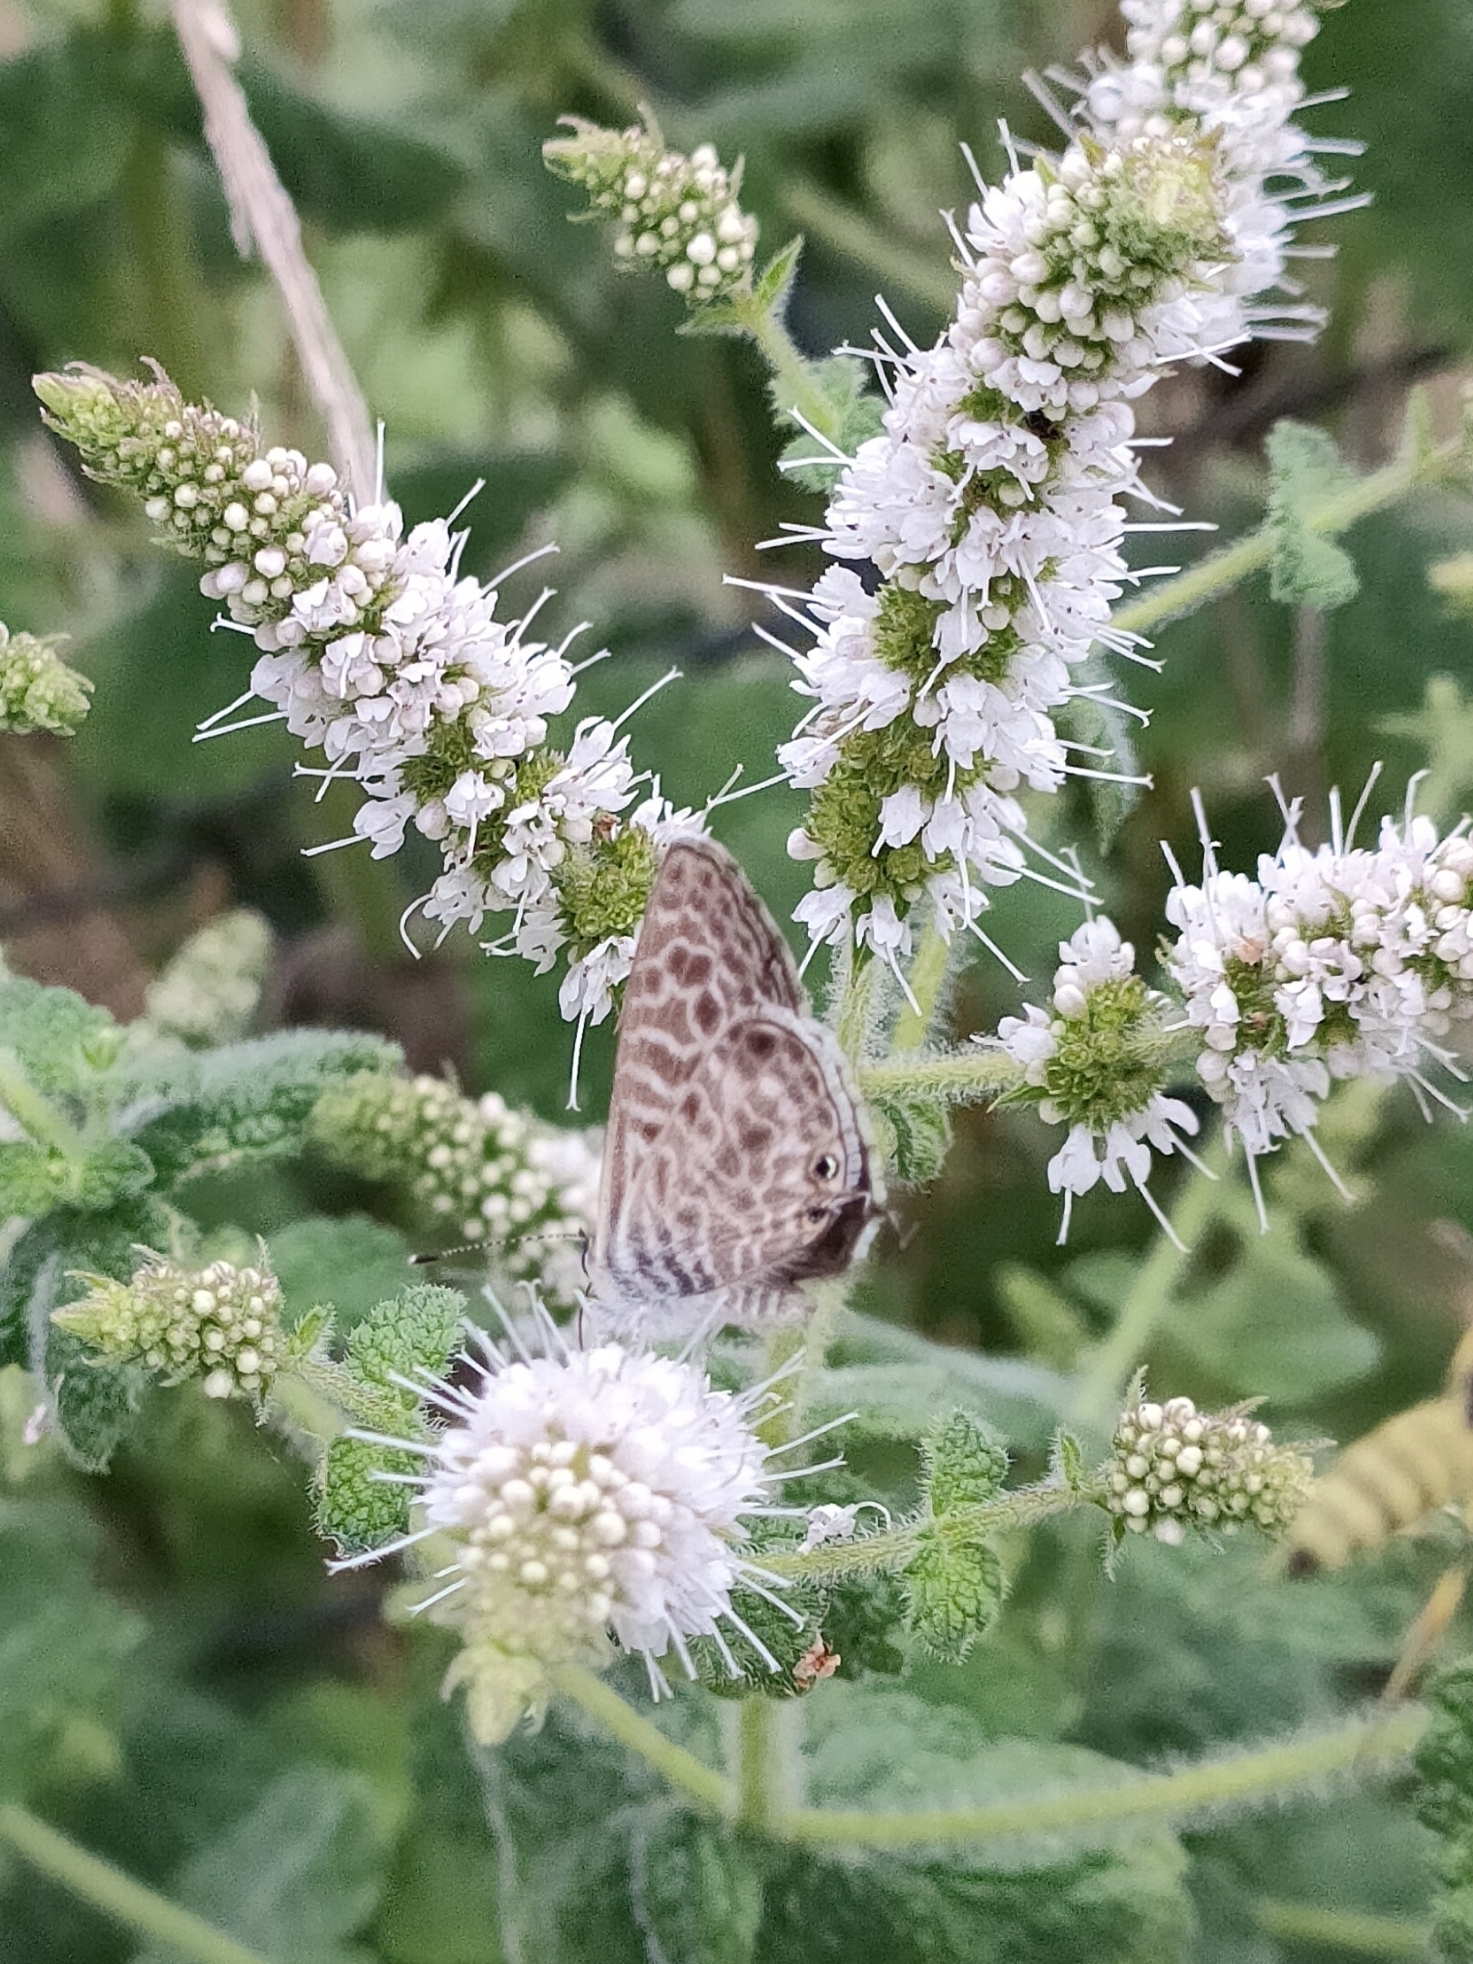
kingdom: Animalia
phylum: Arthropoda
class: Insecta
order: Lepidoptera
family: Lycaenidae
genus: Leptotes
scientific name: Leptotes pirithous
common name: Lang's short-tailed blue
